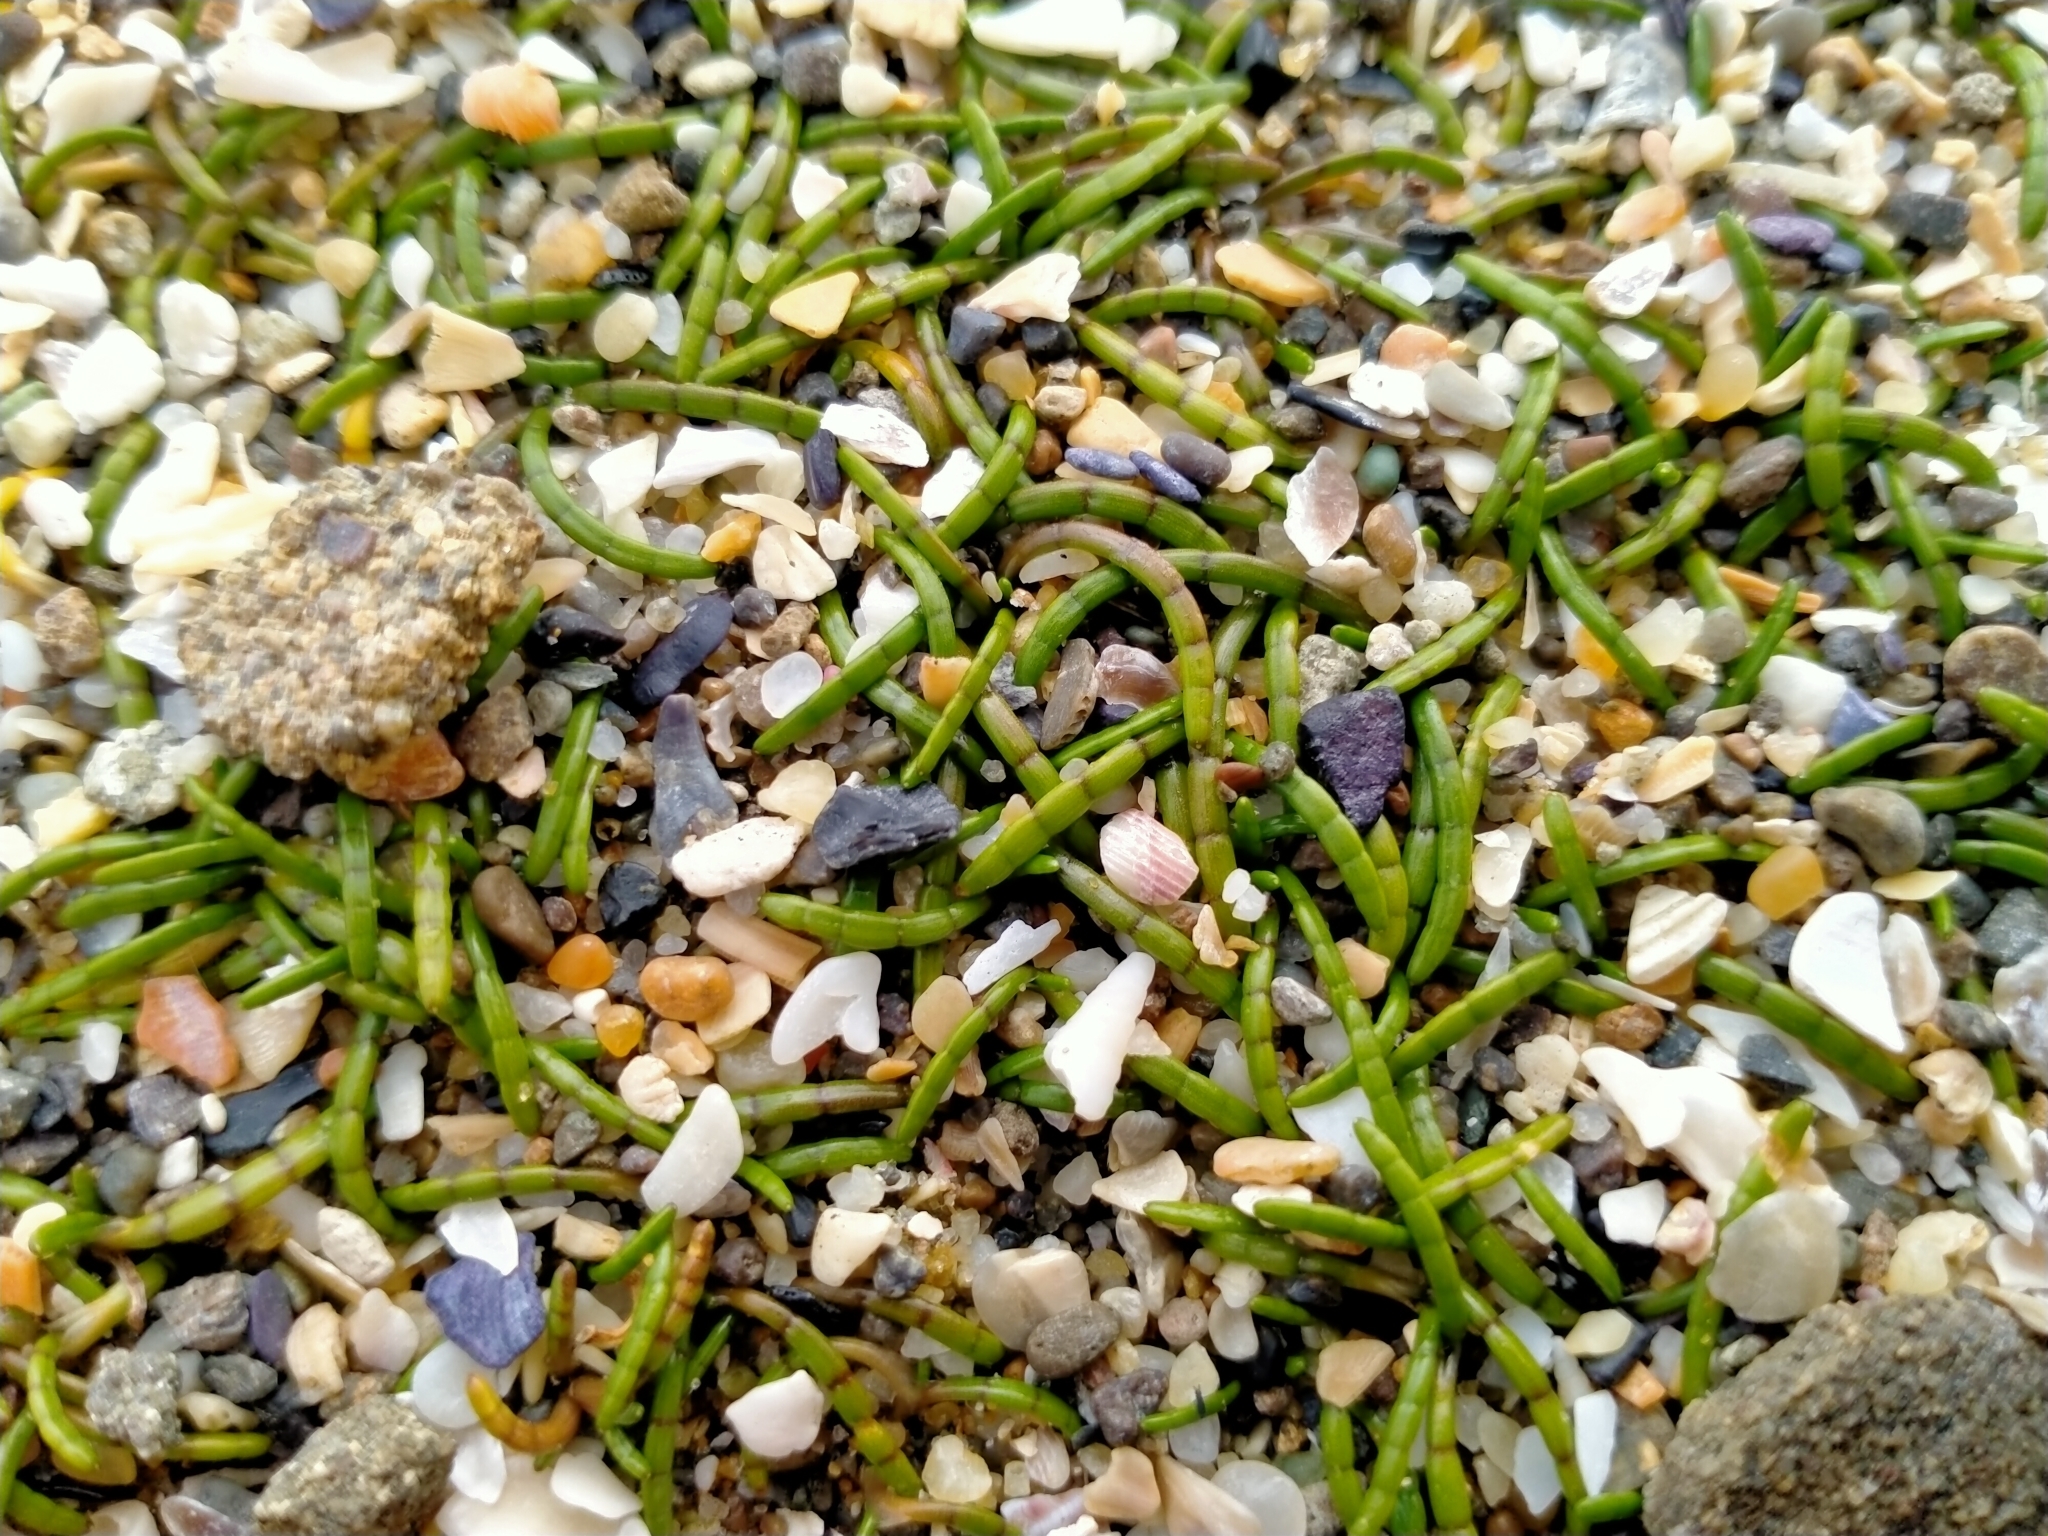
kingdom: Plantae
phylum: Tracheophyta
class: Magnoliopsida
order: Apiales
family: Apiaceae
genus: Lilaeopsis
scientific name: Lilaeopsis novae-zelandiae
